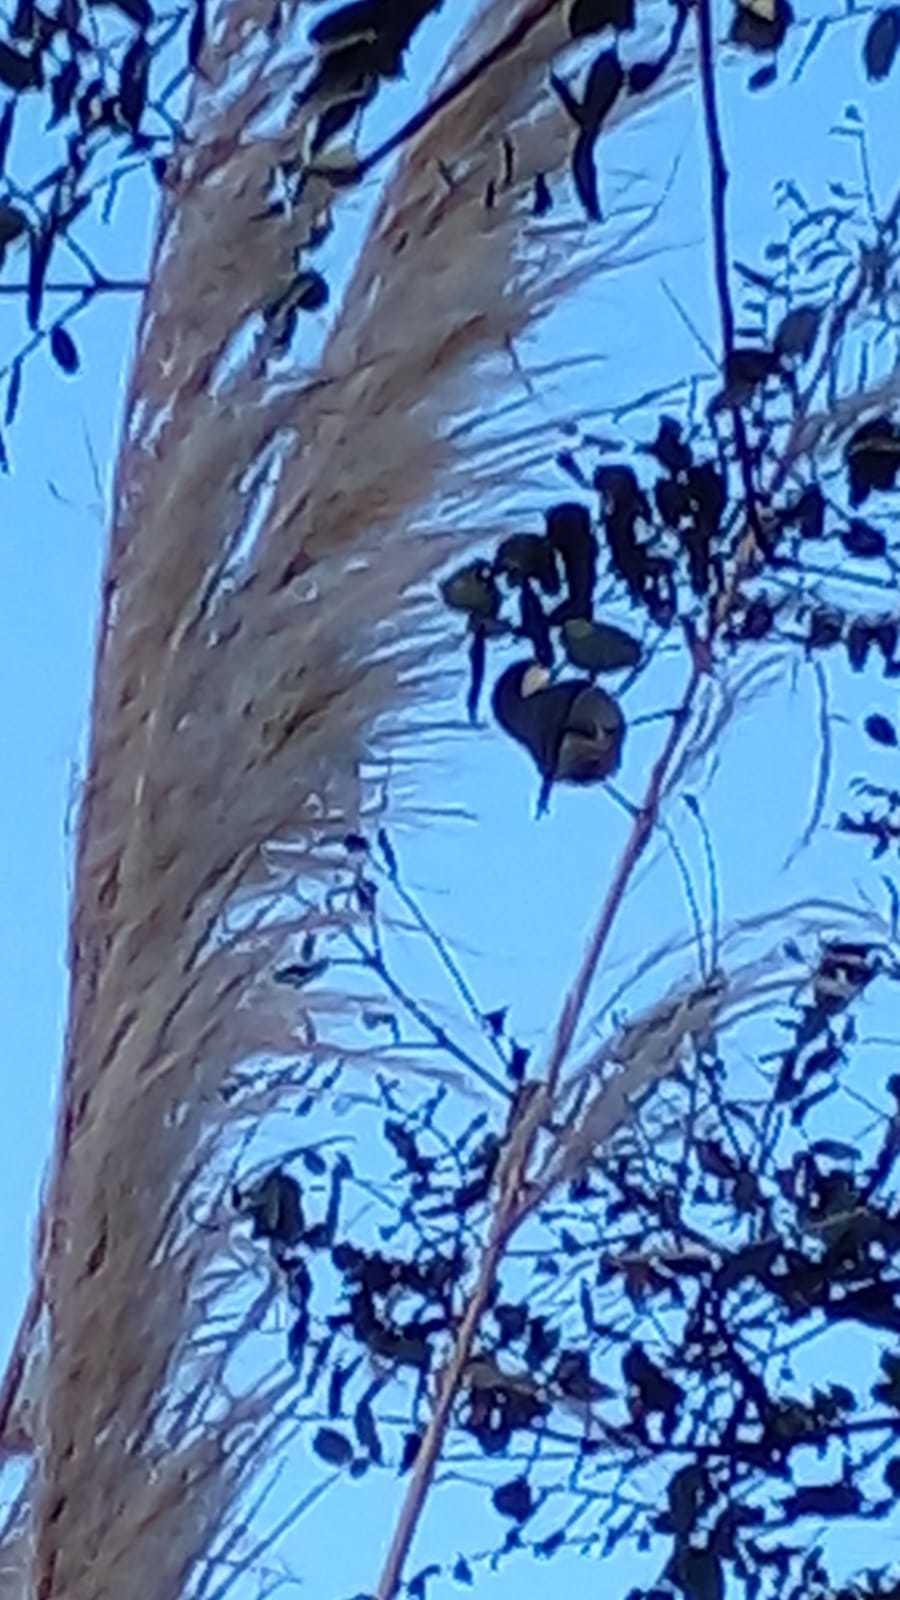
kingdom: Animalia
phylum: Chordata
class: Aves
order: Passeriformes
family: Thraupidae
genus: Microspingus
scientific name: Microspingus melanoleucus
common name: Black-capped warbling-finch
